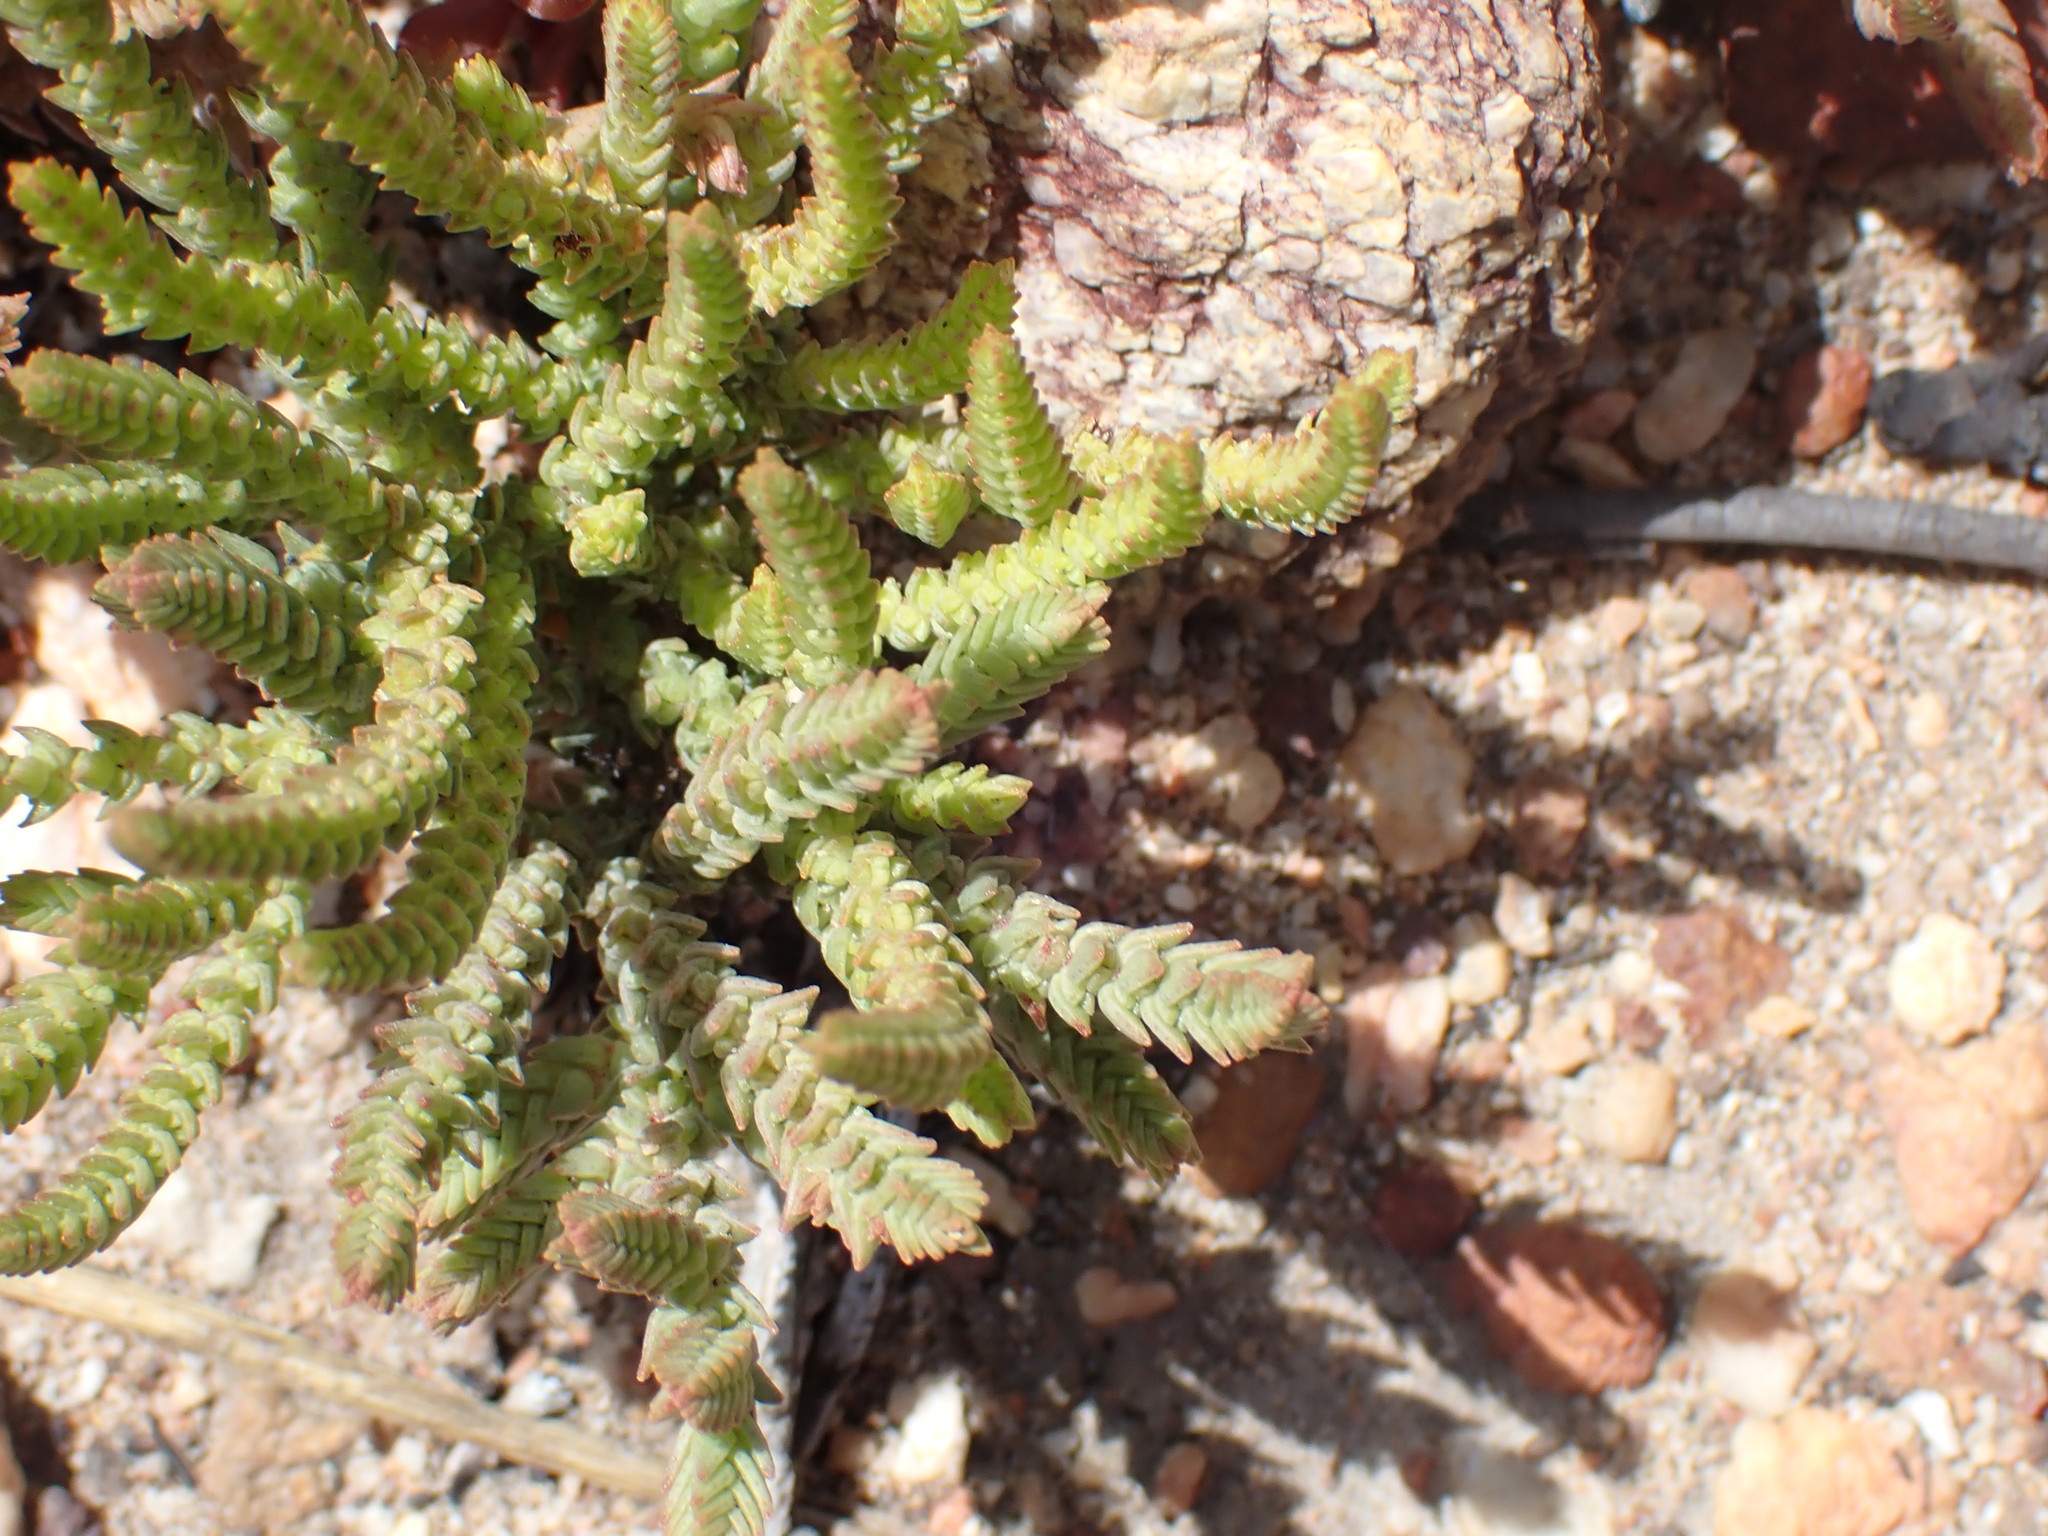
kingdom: Plantae
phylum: Tracheophyta
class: Magnoliopsida
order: Saxifragales
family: Crassulaceae
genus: Crassula
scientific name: Crassula muscosa
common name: Toy-cypress
